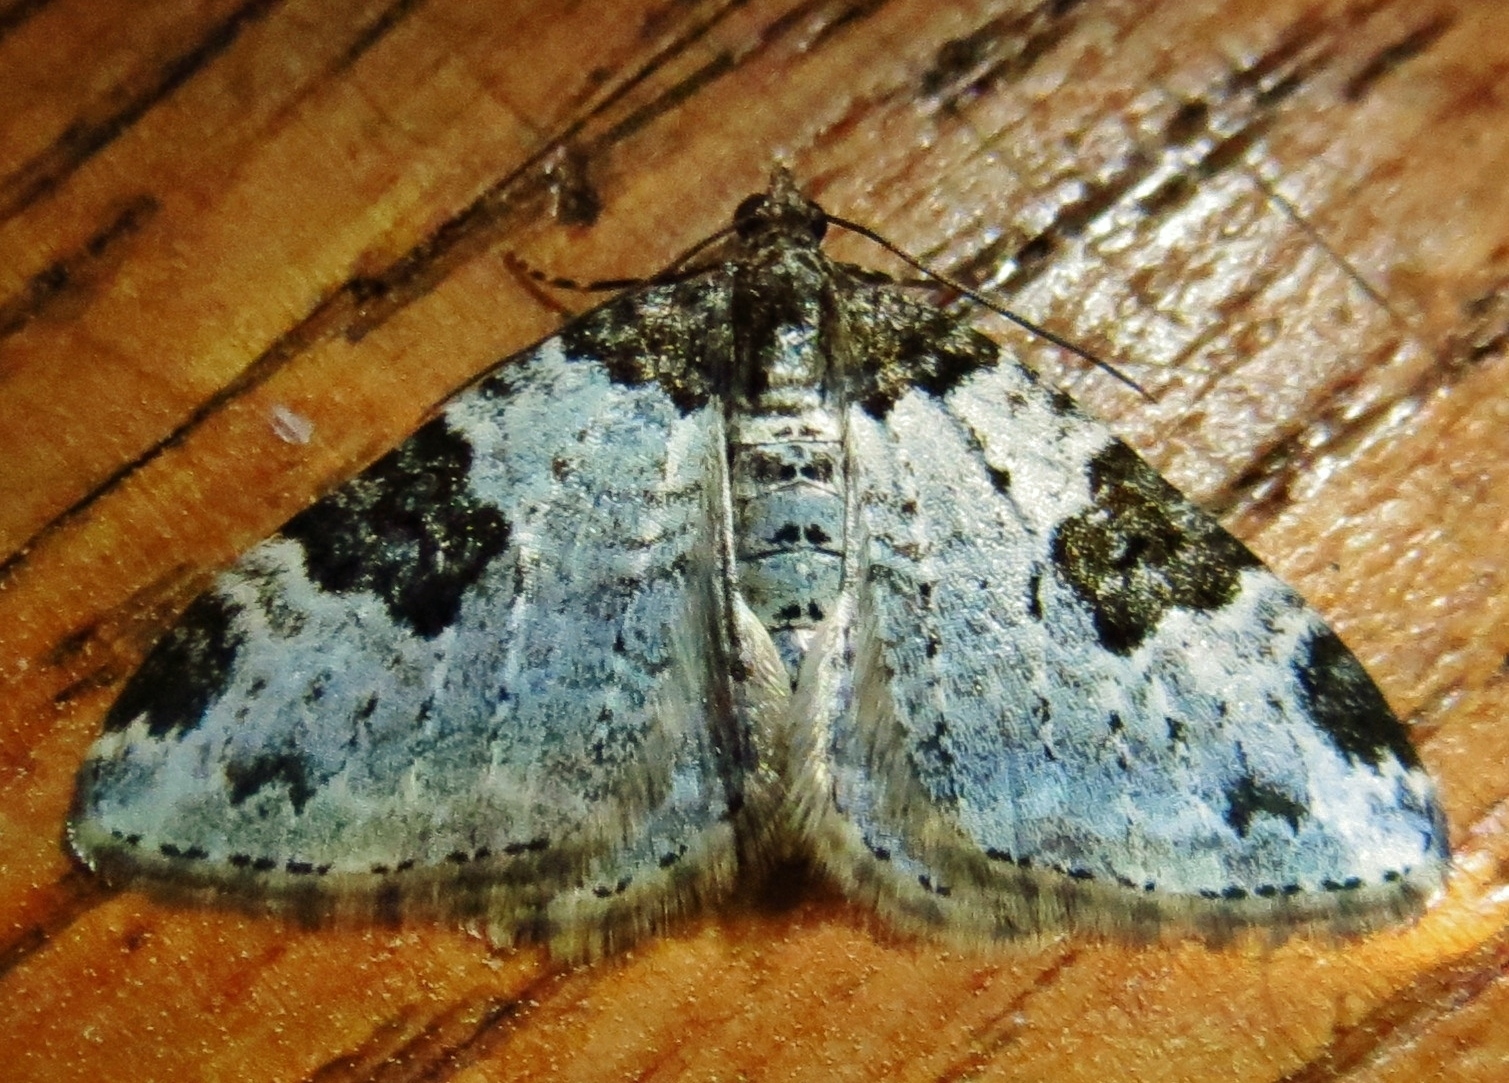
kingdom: Animalia
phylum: Arthropoda
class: Insecta
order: Lepidoptera
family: Geometridae
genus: Xanthorhoe
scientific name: Xanthorhoe fluctuata
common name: Garden carpet
